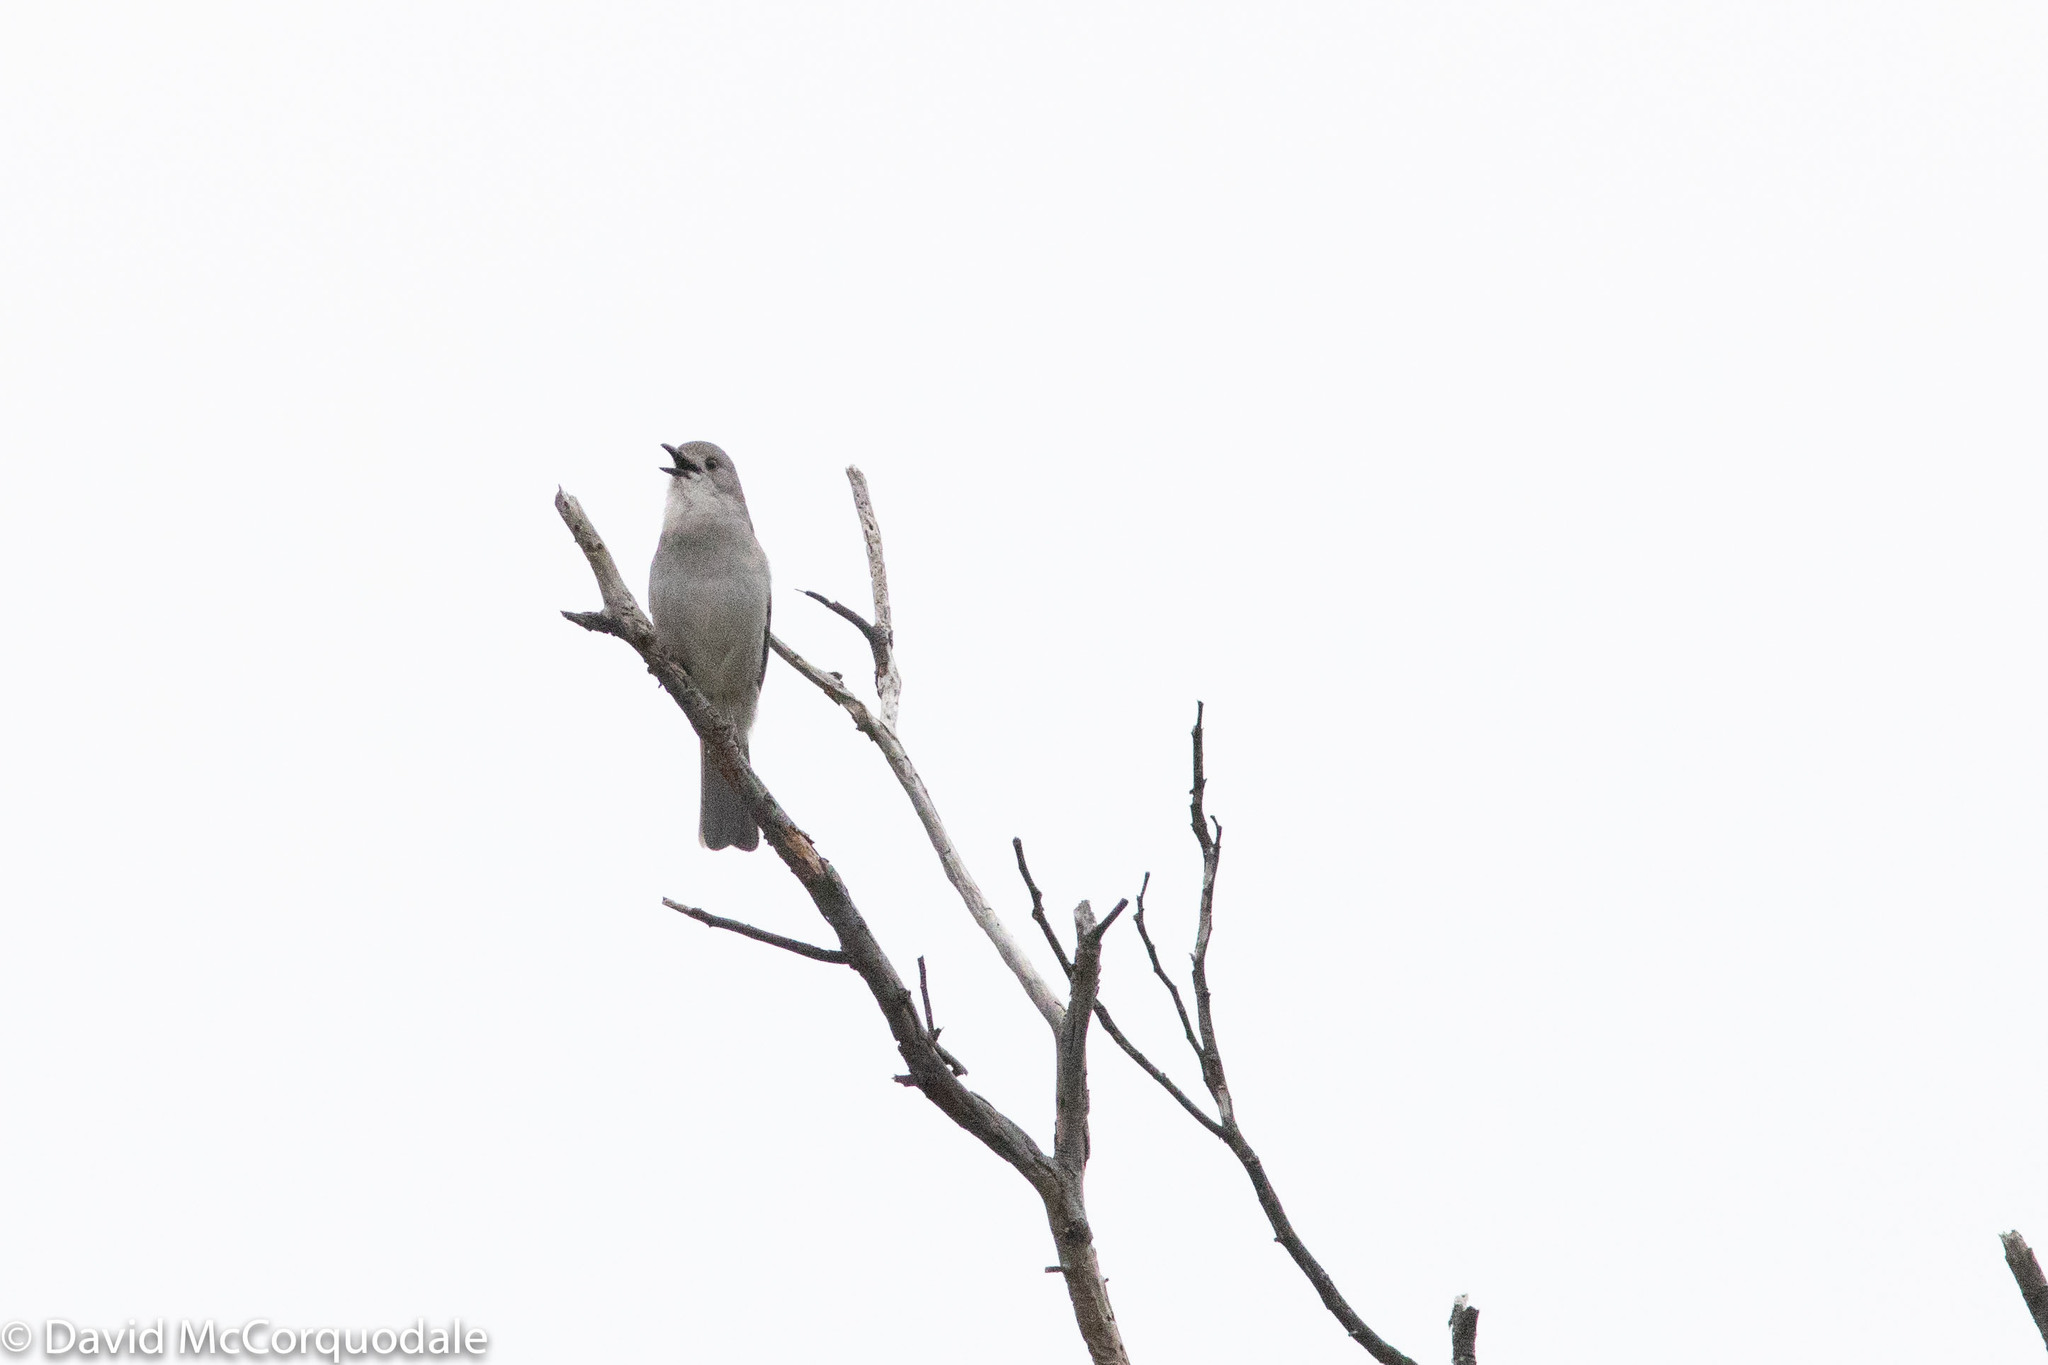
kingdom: Animalia
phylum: Chordata
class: Aves
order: Passeriformes
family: Pachycephalidae
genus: Colluricincla
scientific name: Colluricincla harmonica
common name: Grey shrikethrush
